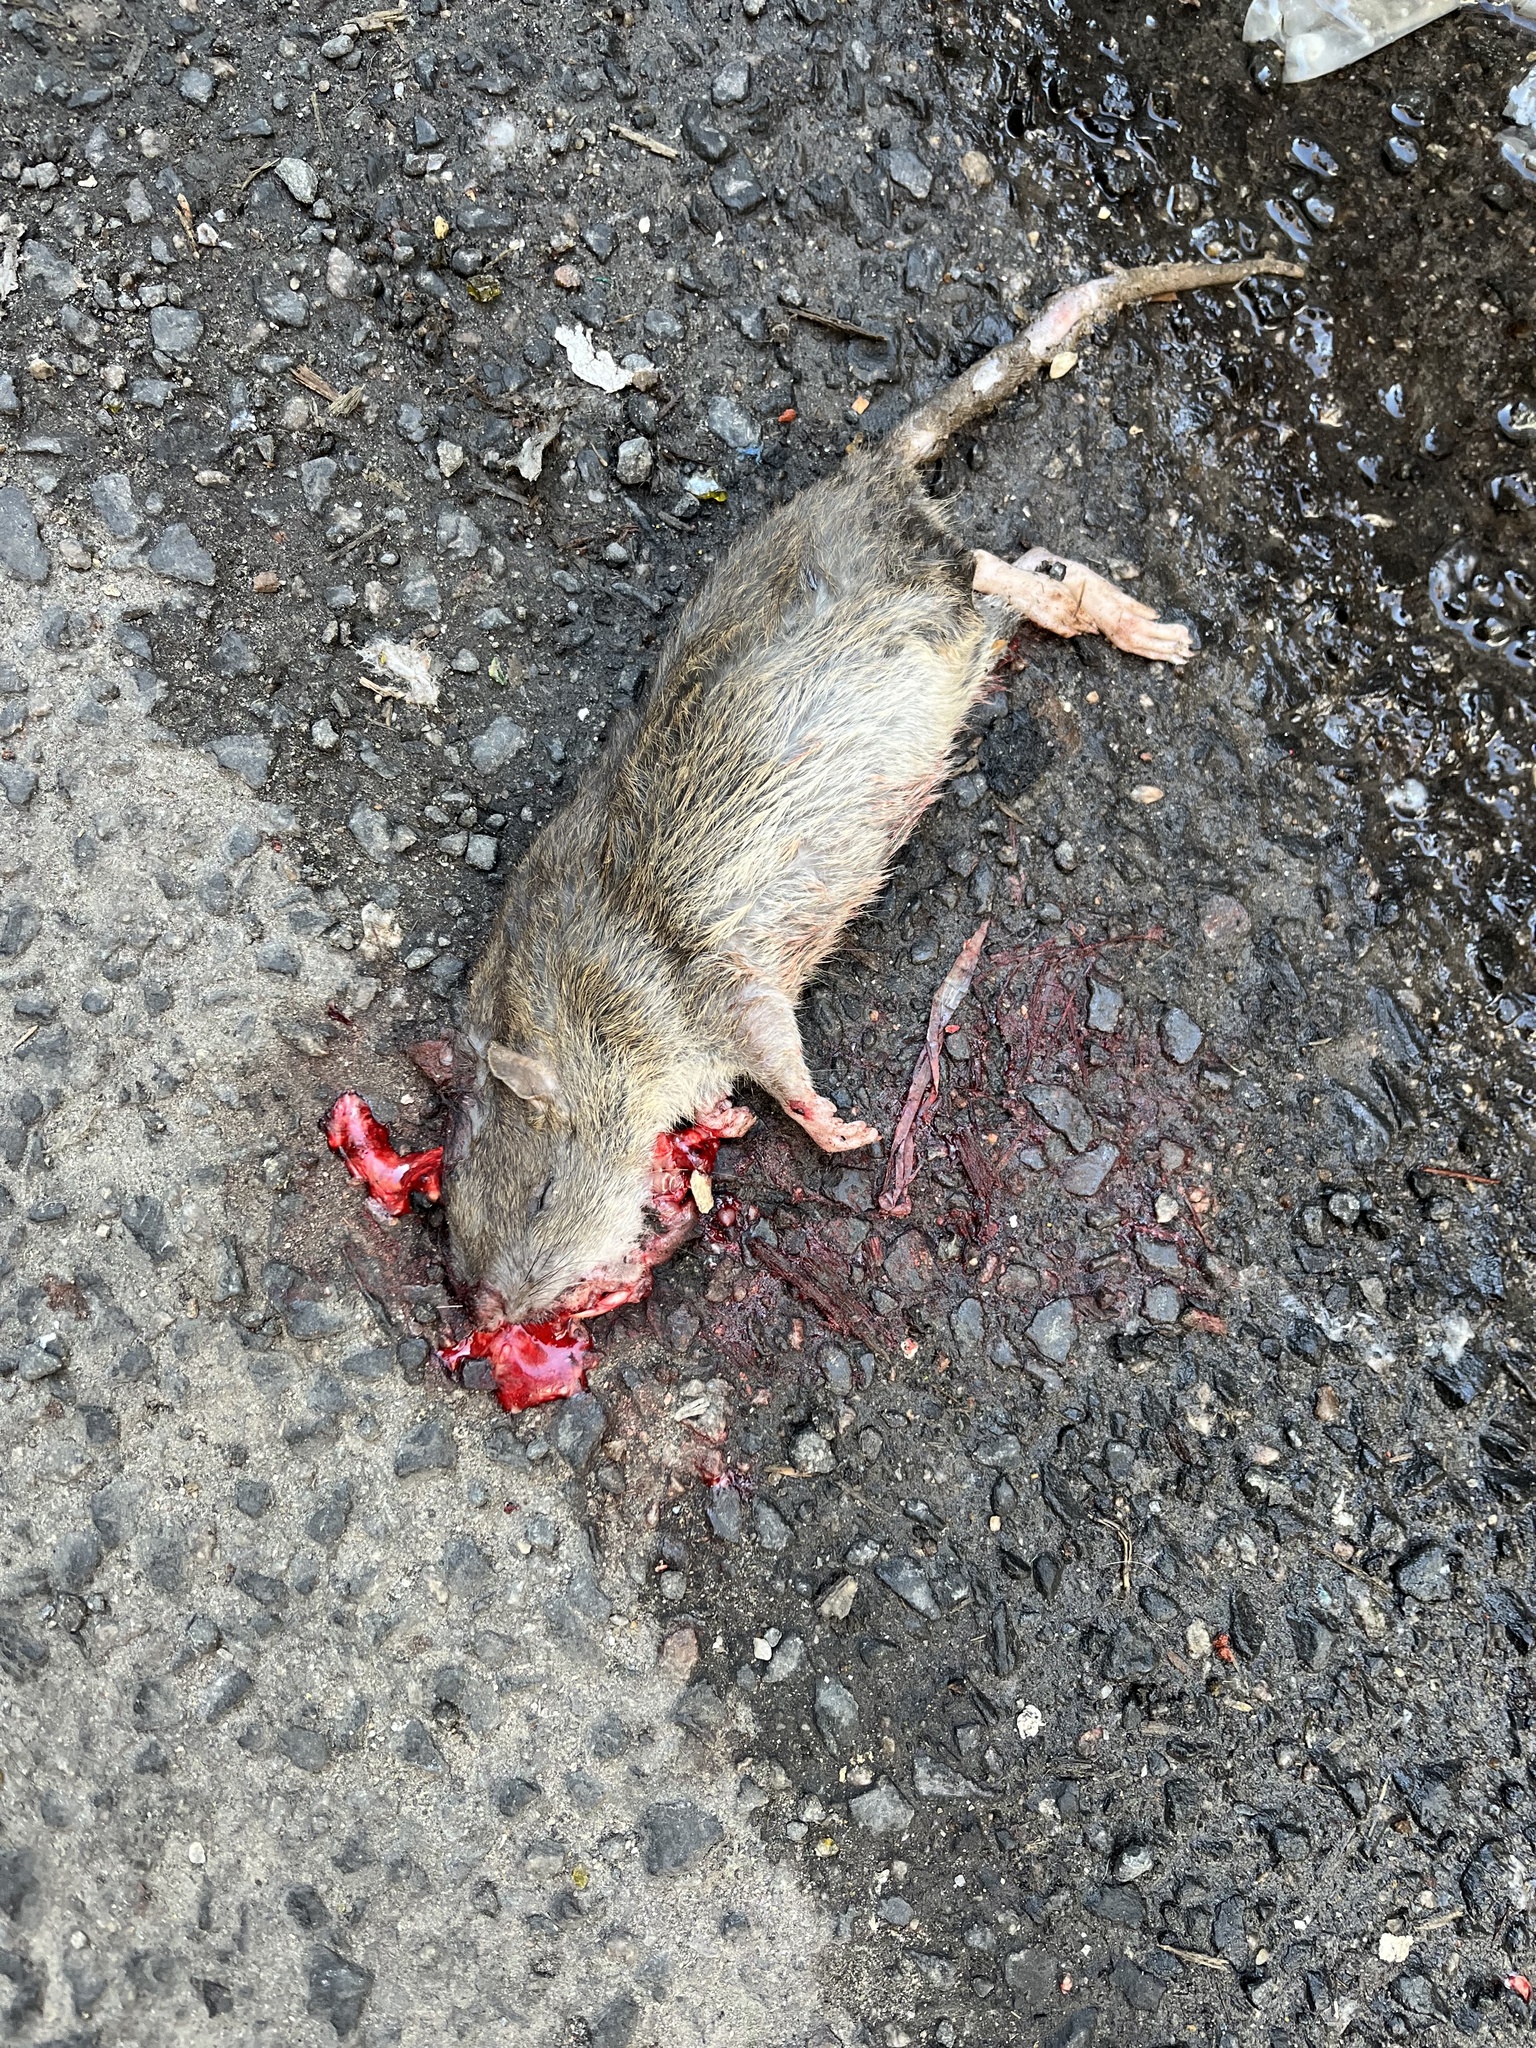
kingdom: Animalia
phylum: Chordata
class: Mammalia
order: Rodentia
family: Muridae
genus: Rattus
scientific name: Rattus norvegicus
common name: Brown rat
